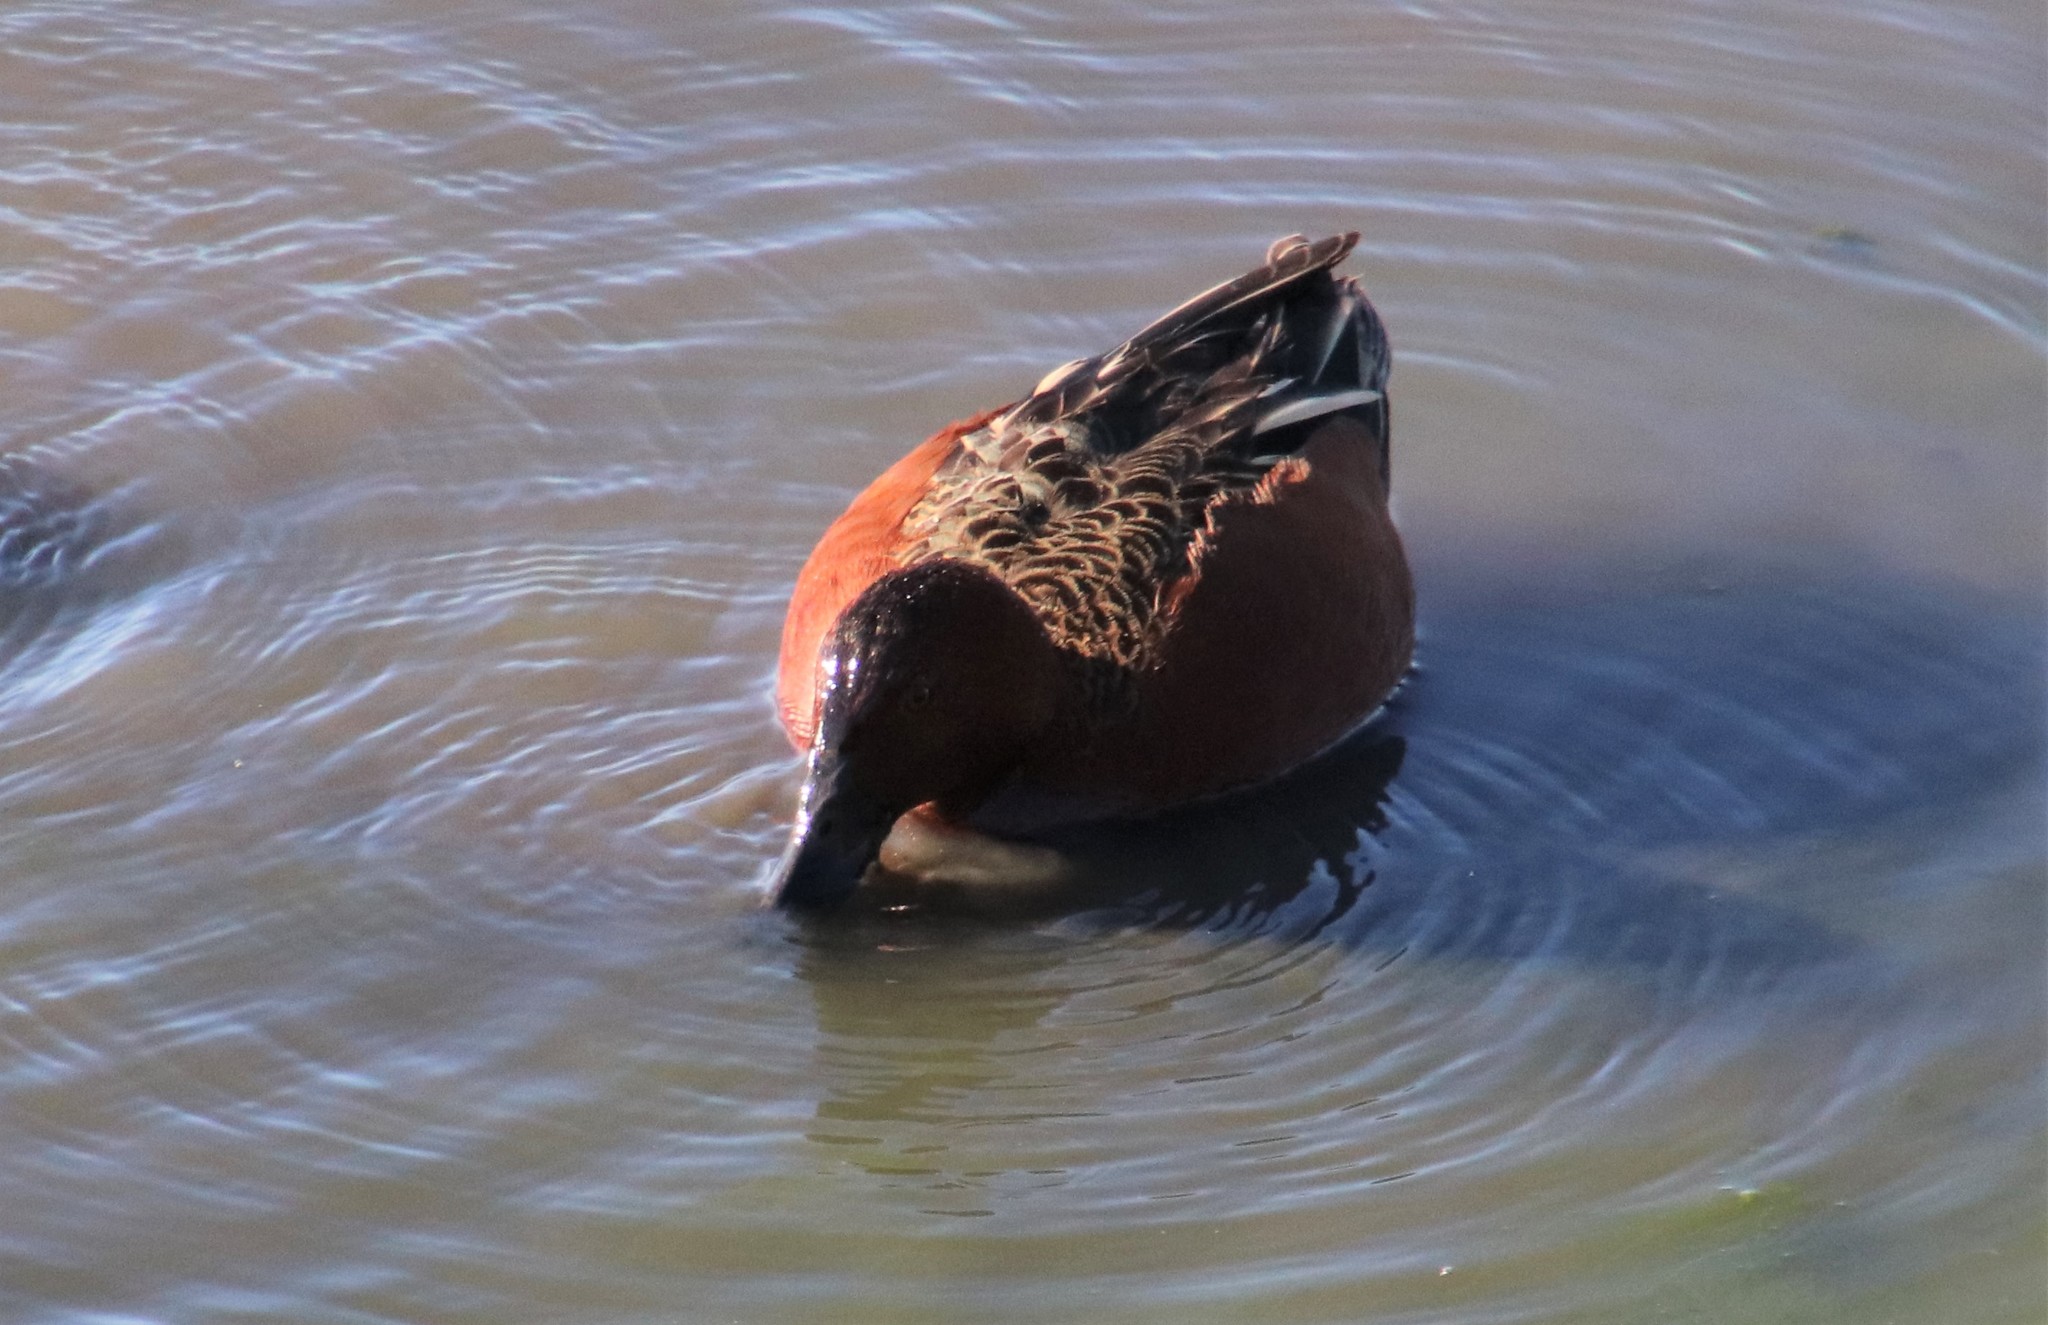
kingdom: Animalia
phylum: Chordata
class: Aves
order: Anseriformes
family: Anatidae
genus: Spatula
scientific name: Spatula cyanoptera
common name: Cinnamon teal
